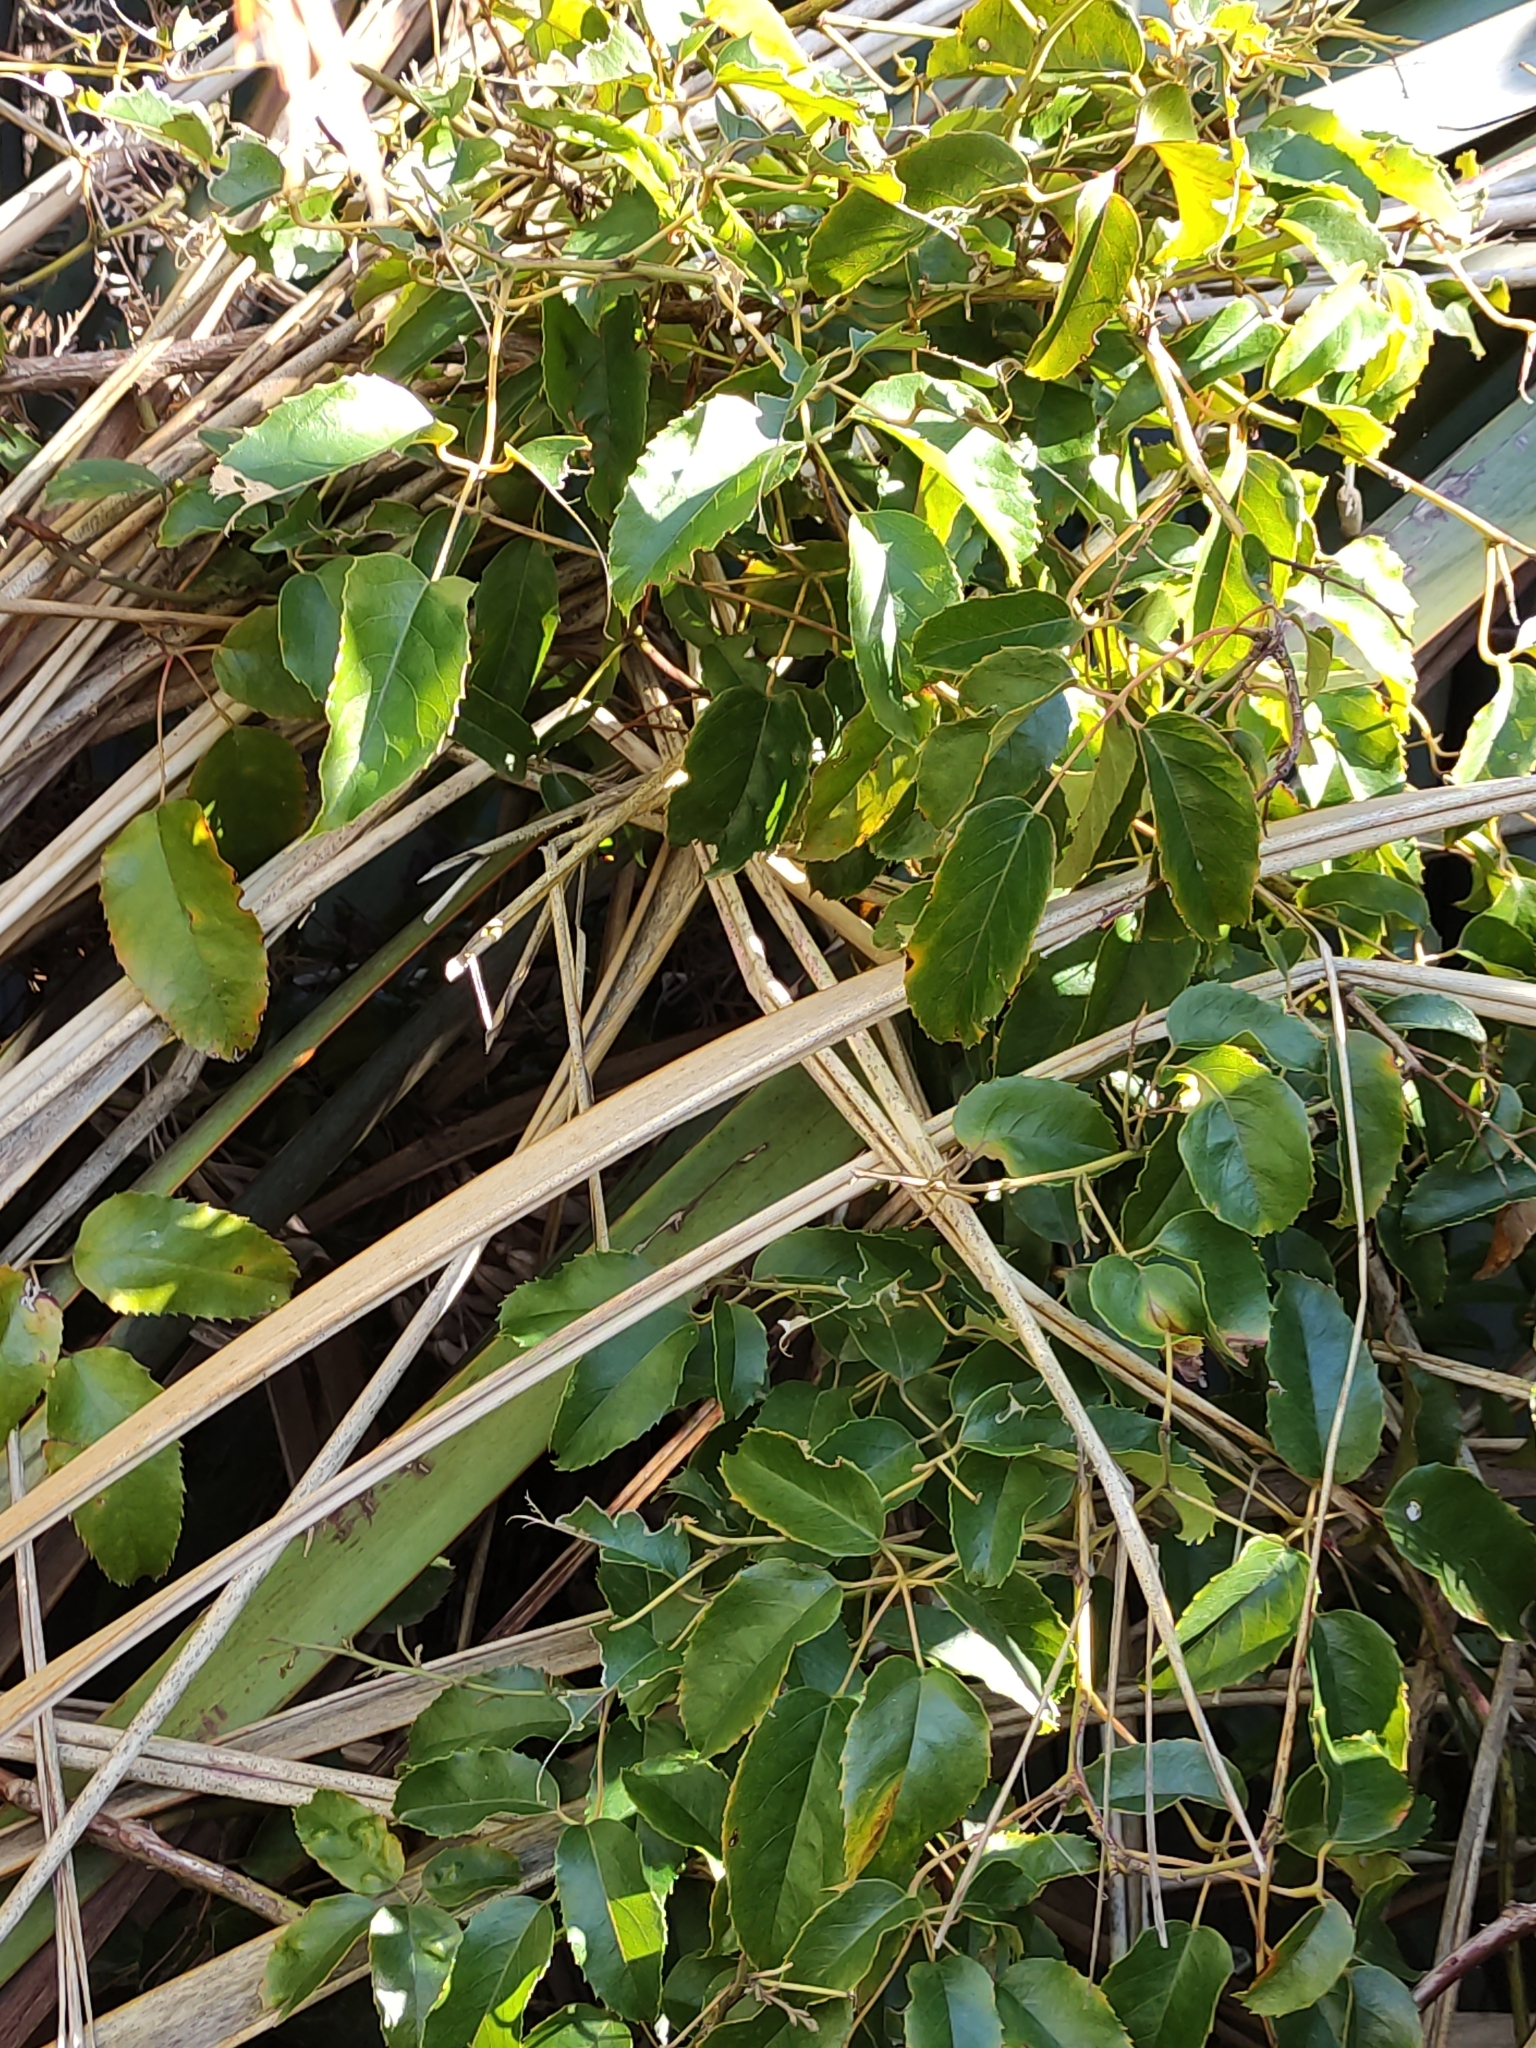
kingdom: Plantae
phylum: Tracheophyta
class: Magnoliopsida
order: Rosales
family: Rosaceae
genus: Rubus
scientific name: Rubus cissoides
